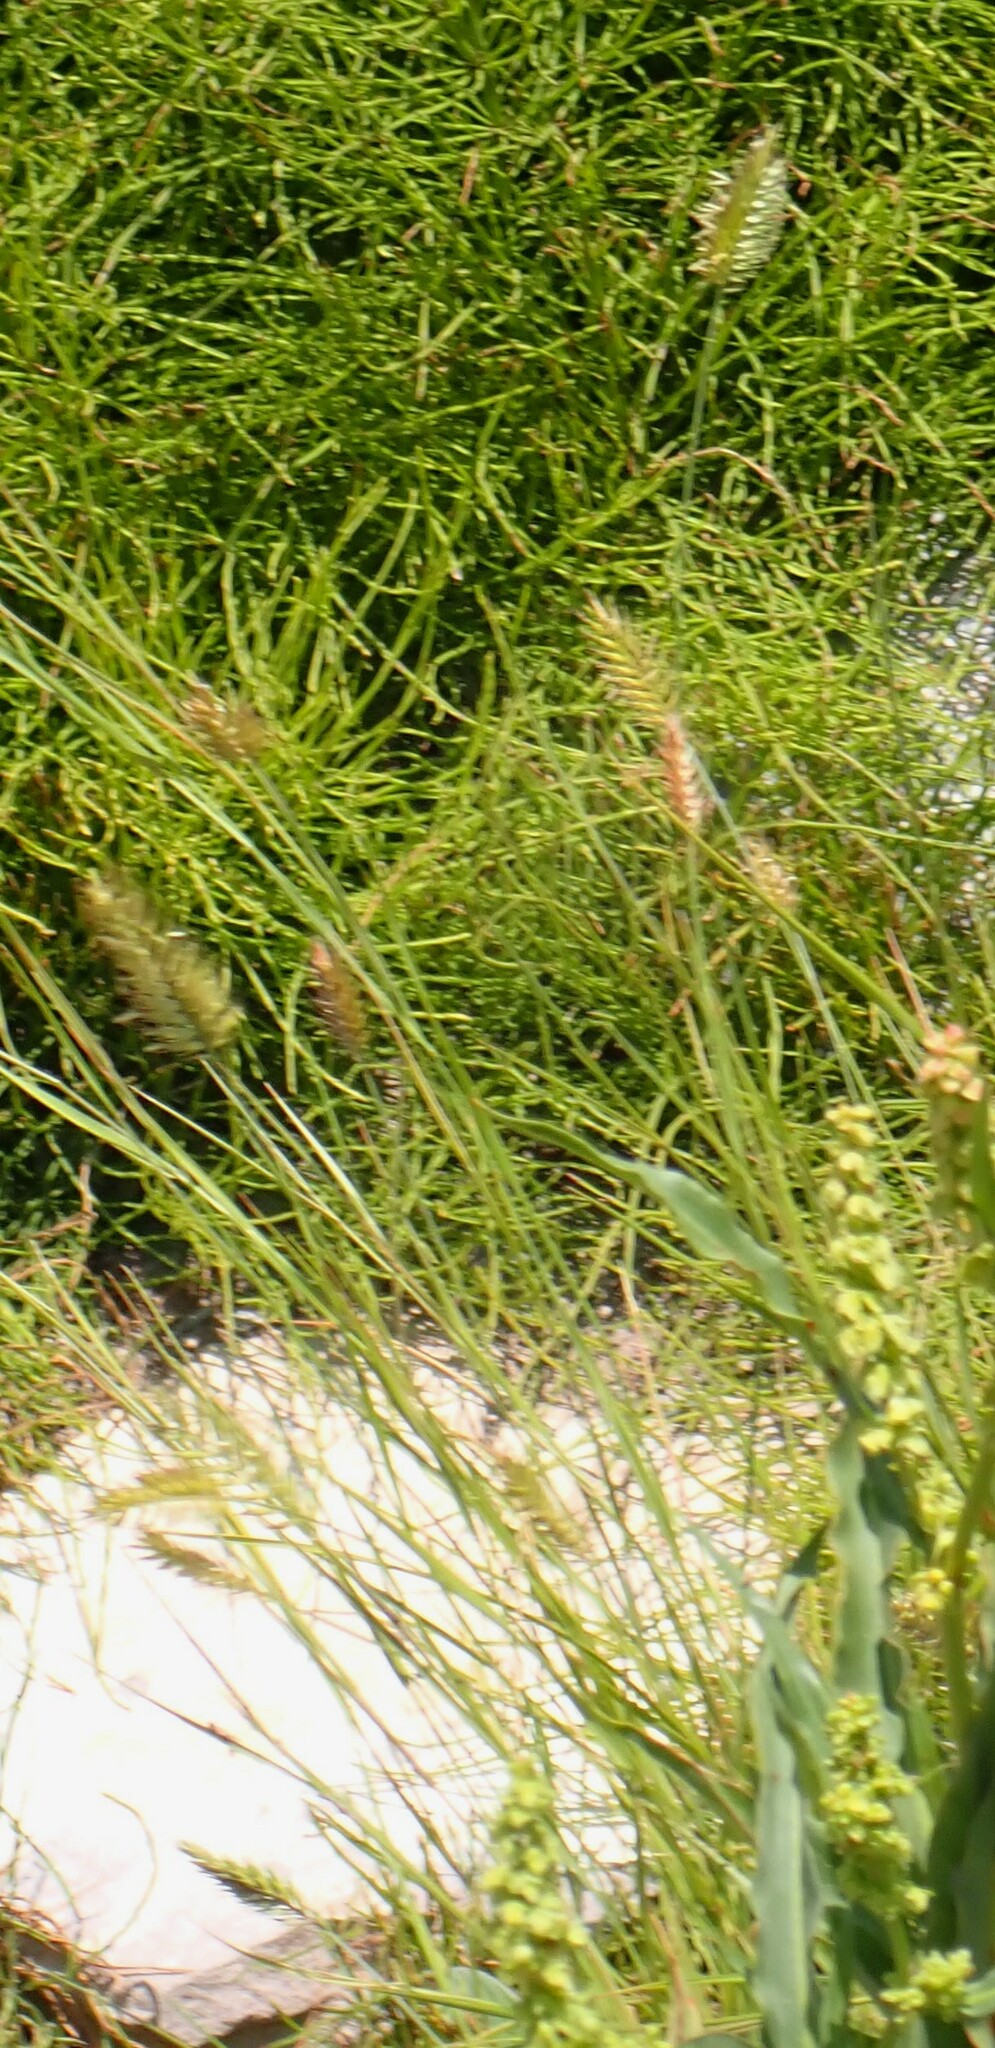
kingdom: Plantae
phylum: Tracheophyta
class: Liliopsida
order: Poales
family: Poaceae
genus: Agropyron
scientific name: Agropyron cristatum
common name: Crested wheatgrass
